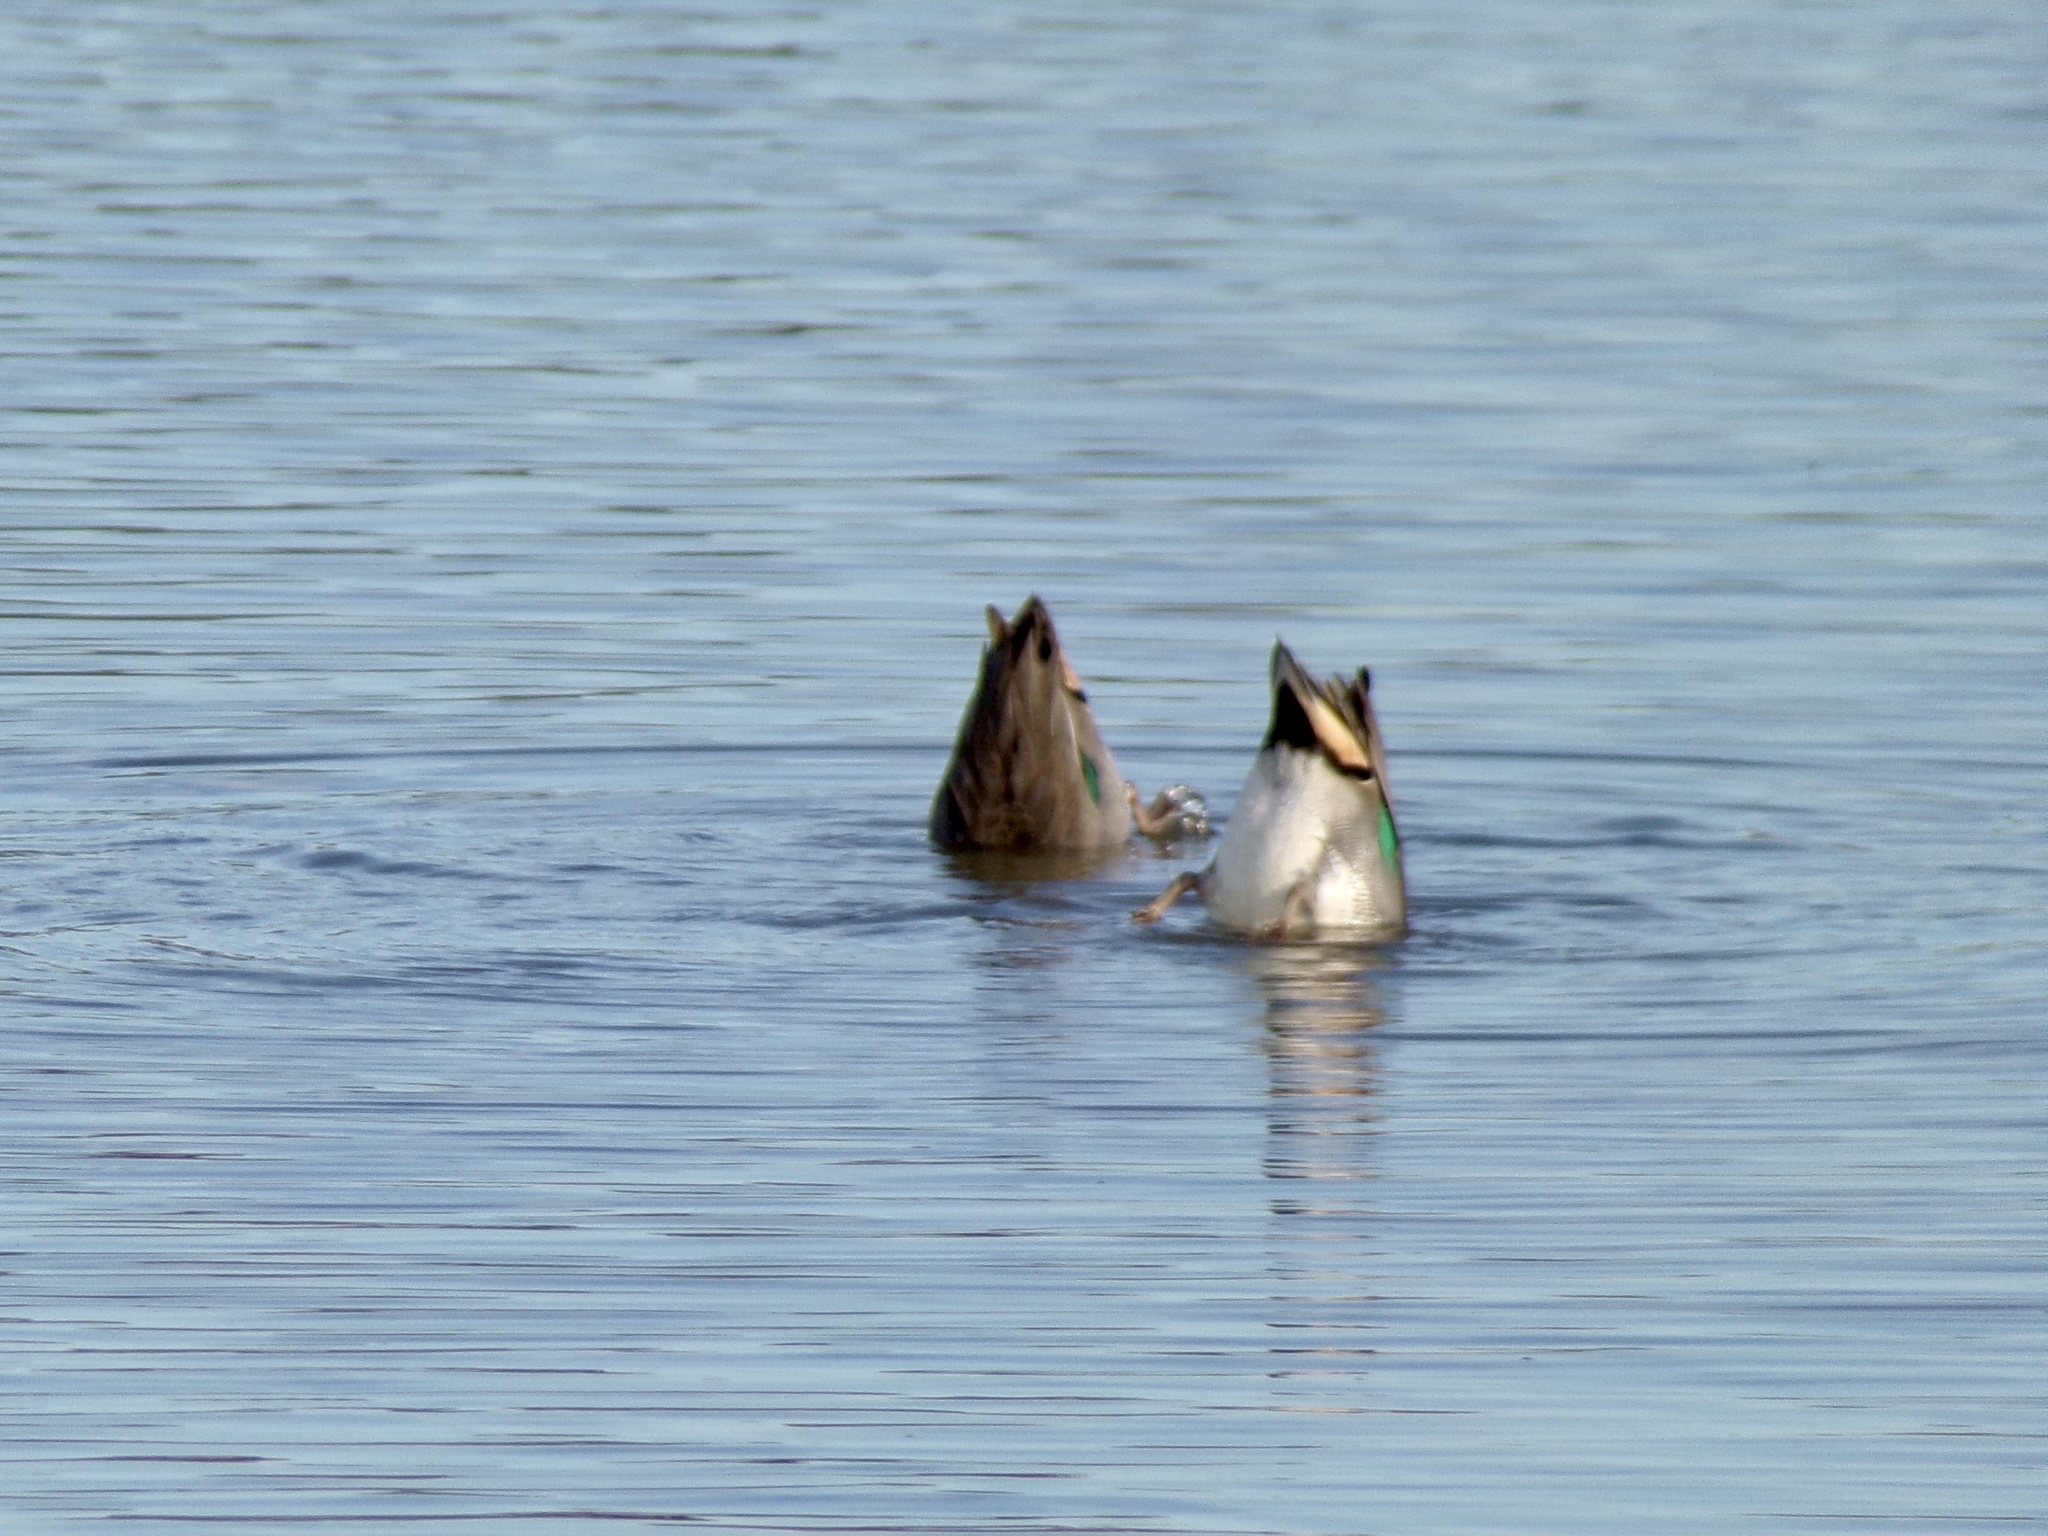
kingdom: Animalia
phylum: Chordata
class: Aves
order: Anseriformes
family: Anatidae
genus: Anas
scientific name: Anas crecca
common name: Eurasian teal
